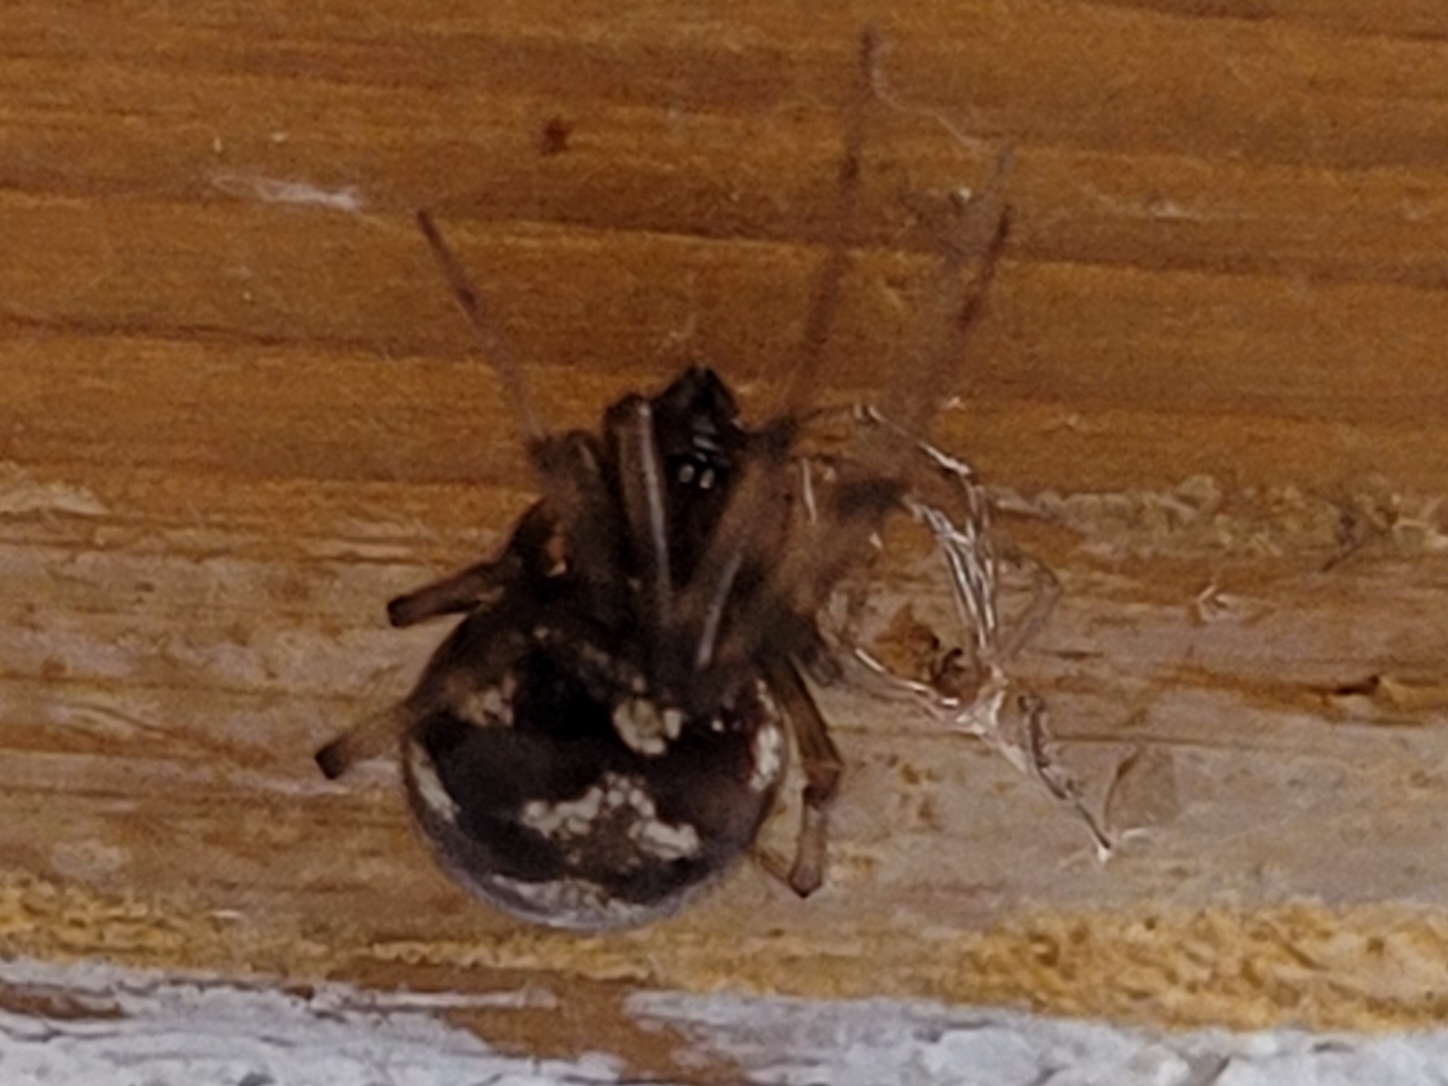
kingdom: Animalia
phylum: Arthropoda
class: Arachnida
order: Araneae
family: Theridiidae
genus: Steatoda
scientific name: Steatoda triangulosa
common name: Triangulate bud spider
